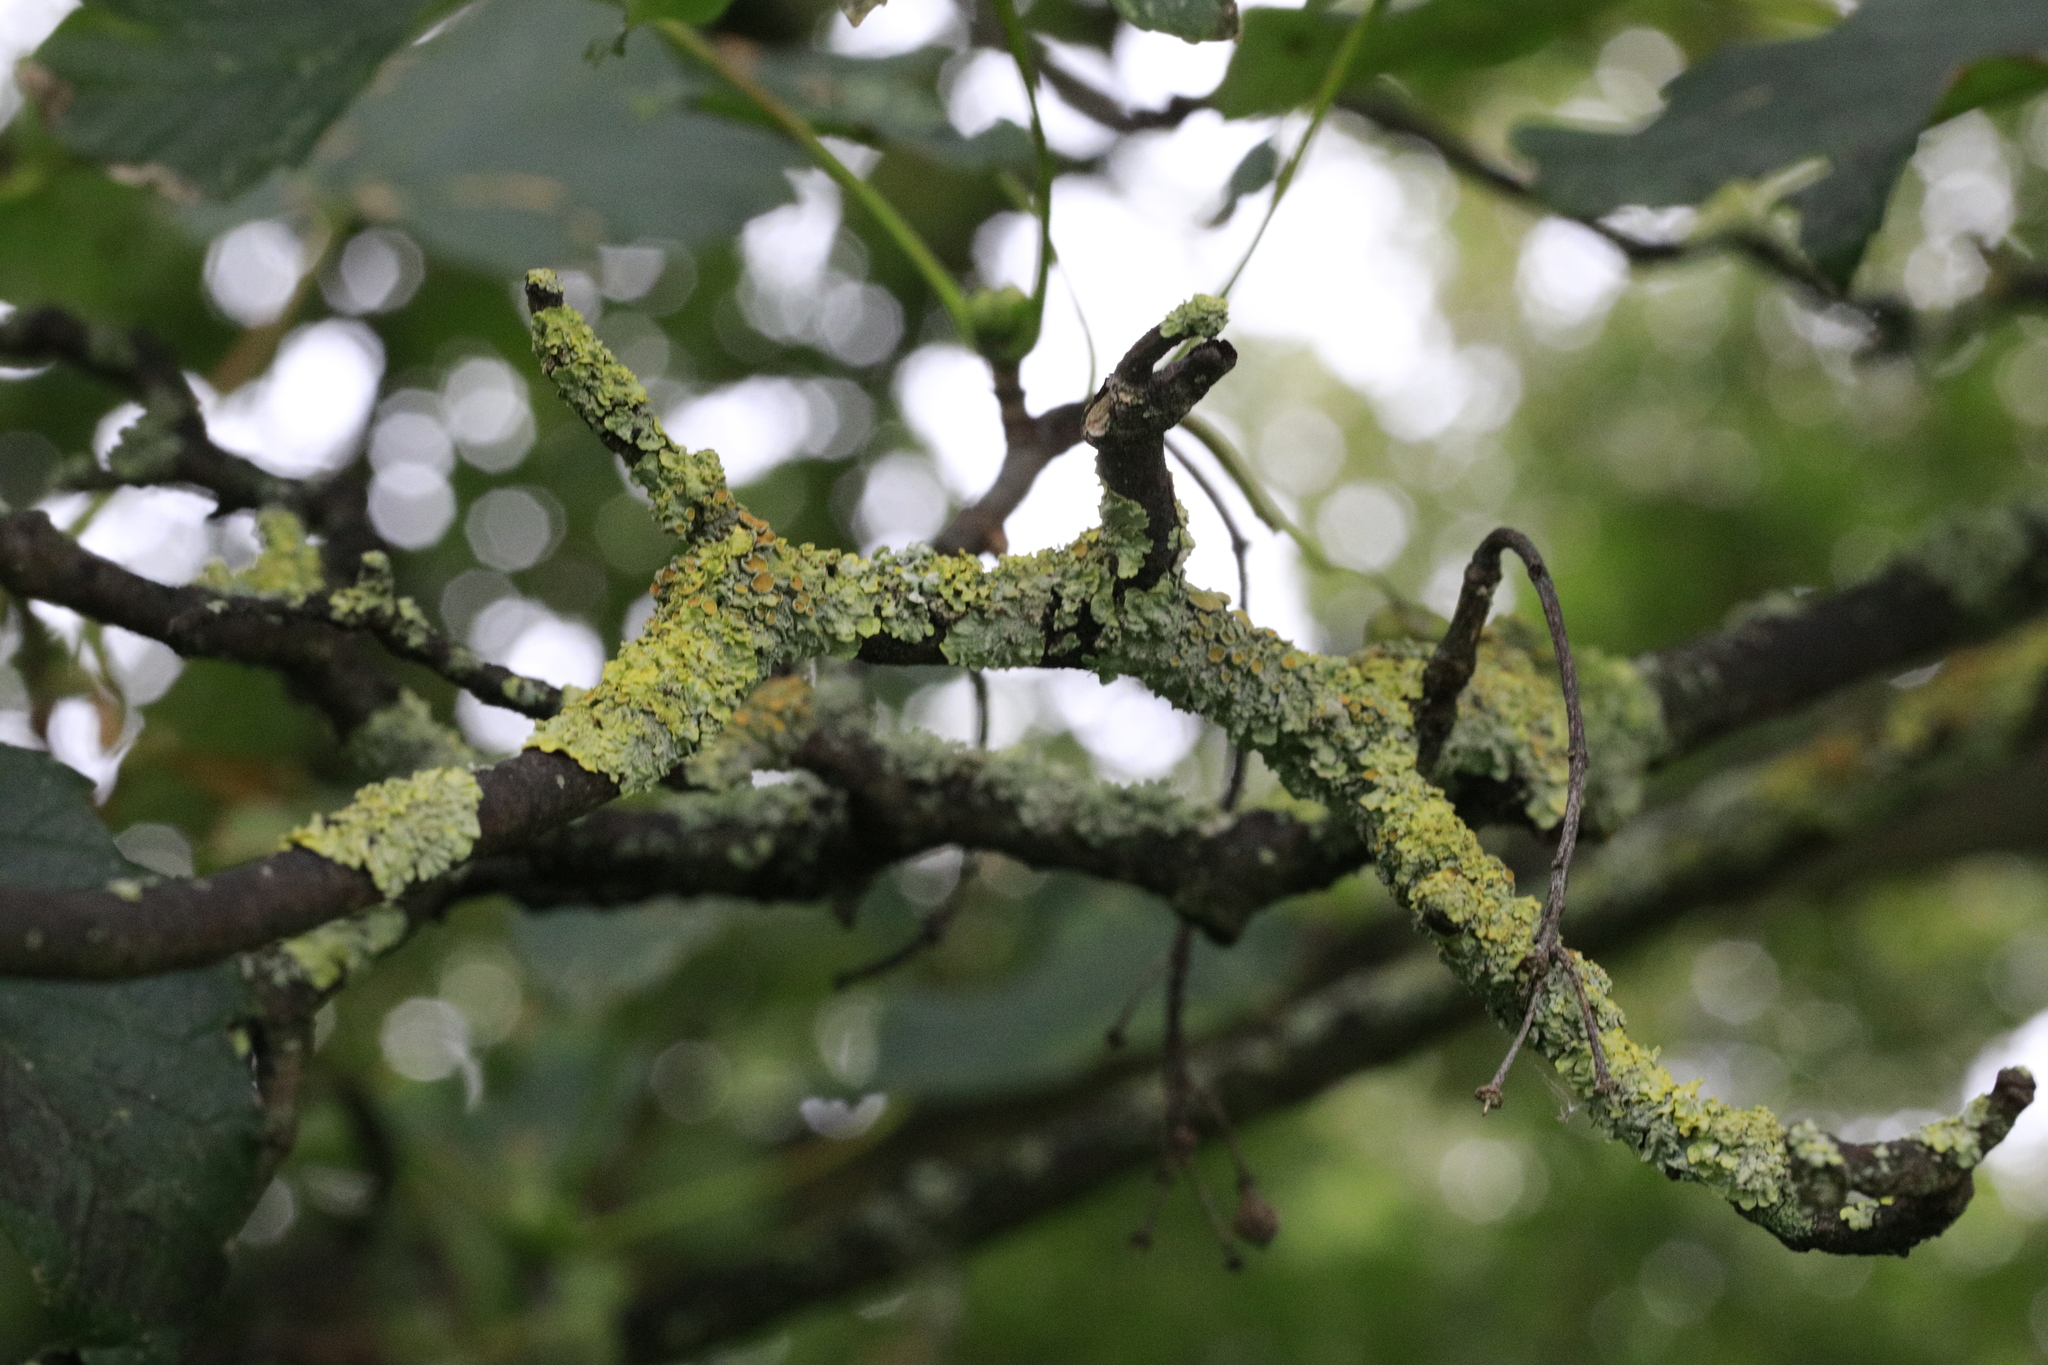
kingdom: Fungi
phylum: Ascomycota
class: Lecanoromycetes
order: Teloschistales
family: Teloschistaceae
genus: Xanthoria
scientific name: Xanthoria parietina
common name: Common orange lichen
